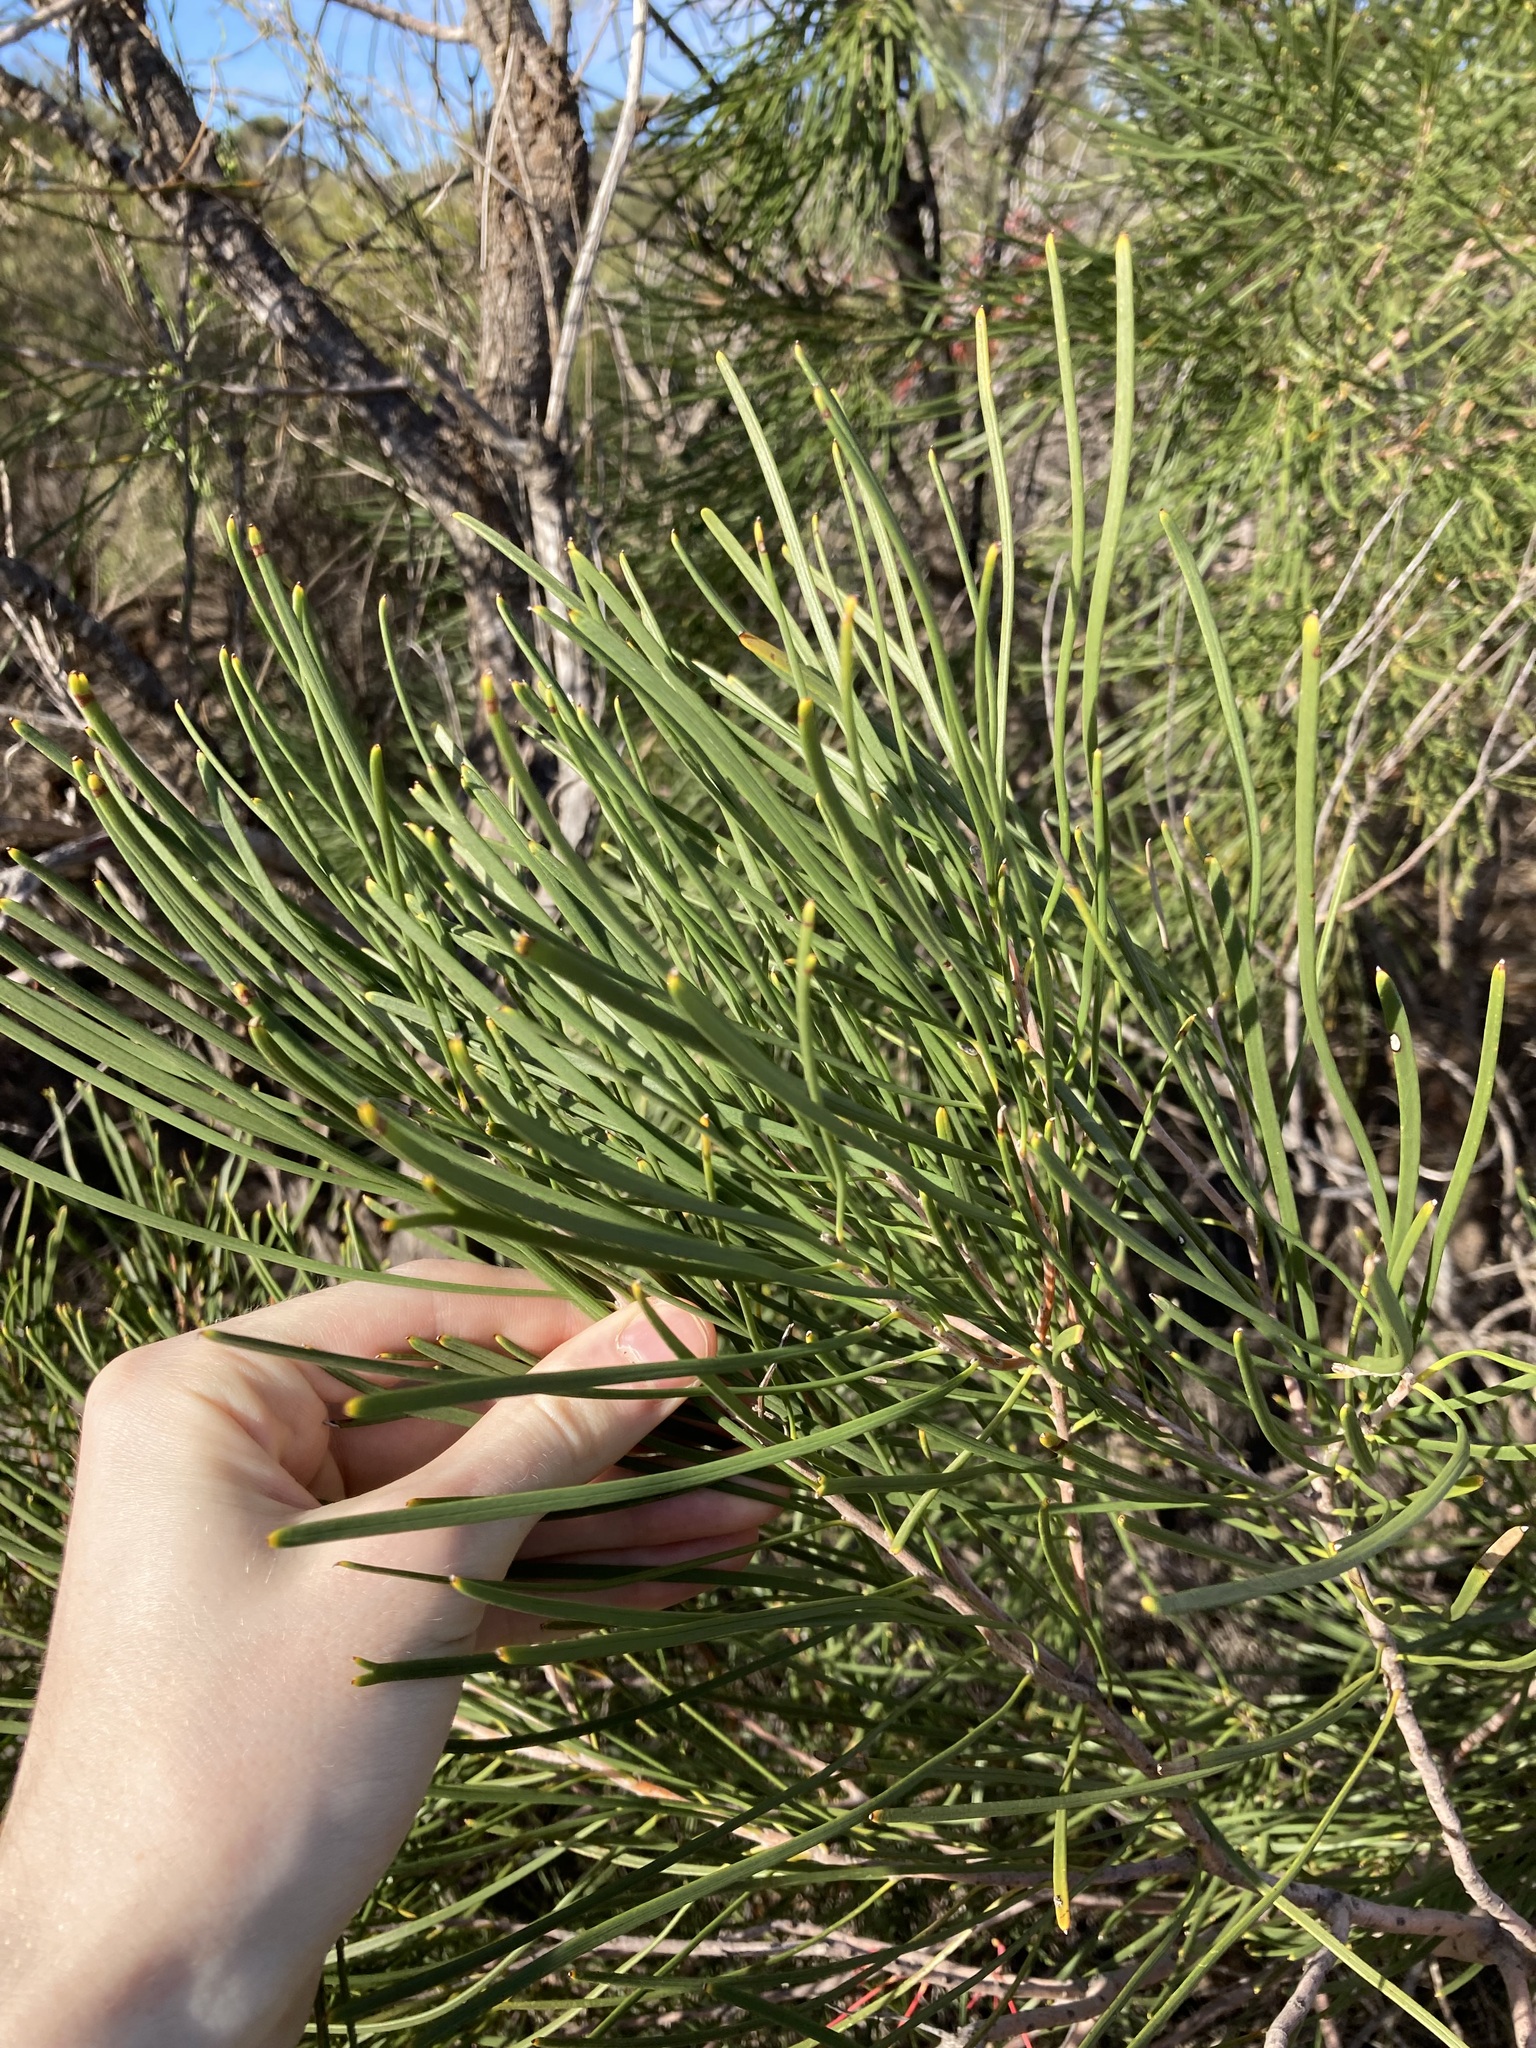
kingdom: Plantae
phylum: Tracheophyta
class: Magnoliopsida
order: Proteales
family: Proteaceae
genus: Hakea
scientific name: Hakea orthorrhyncha
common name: Bird beak hakea
